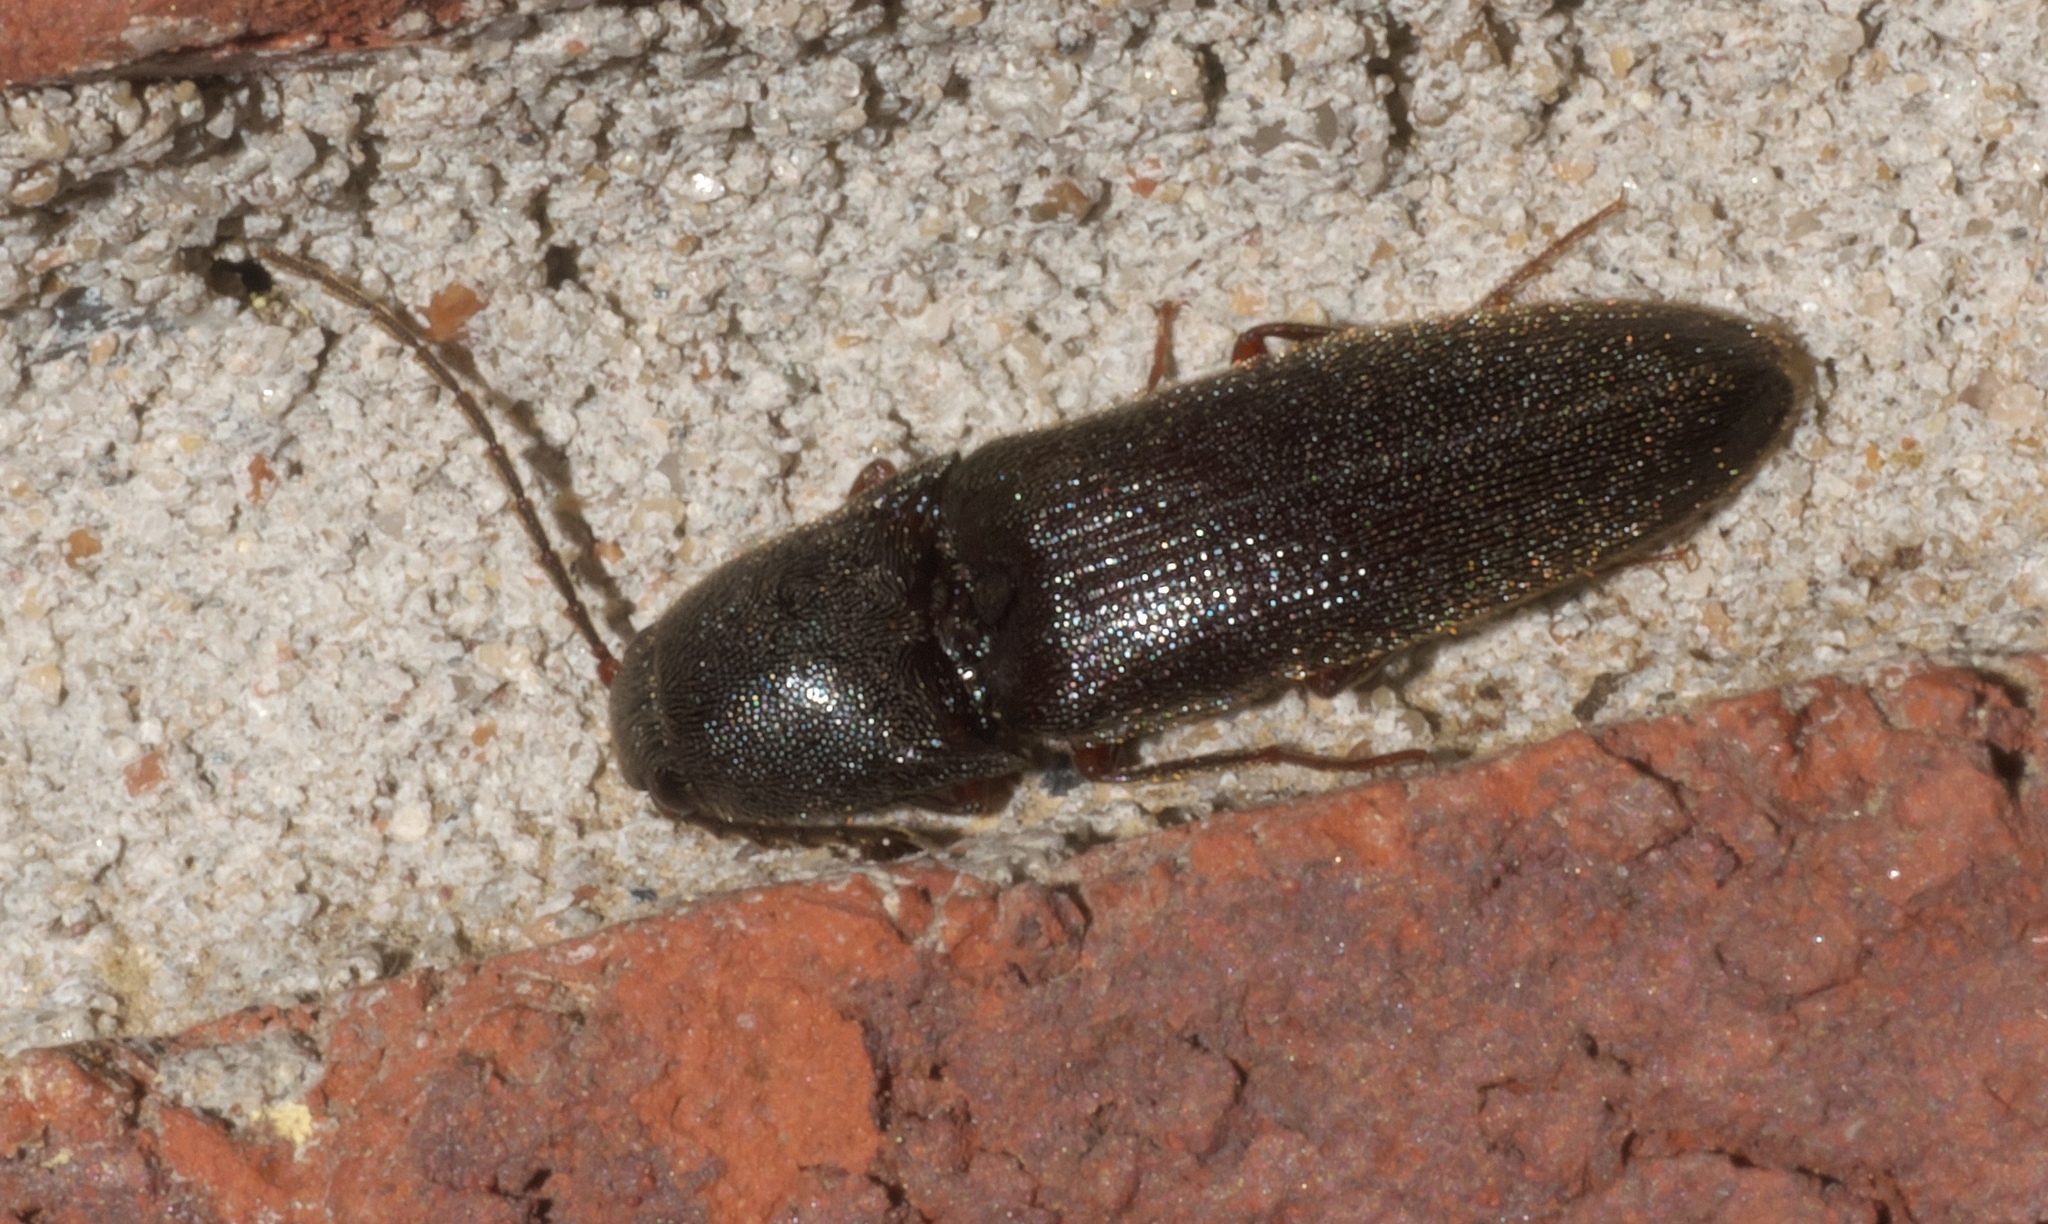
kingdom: Animalia
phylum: Arthropoda
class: Insecta
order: Coleoptera
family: Elateridae
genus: Megapenthes
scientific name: Megapenthes insignis
